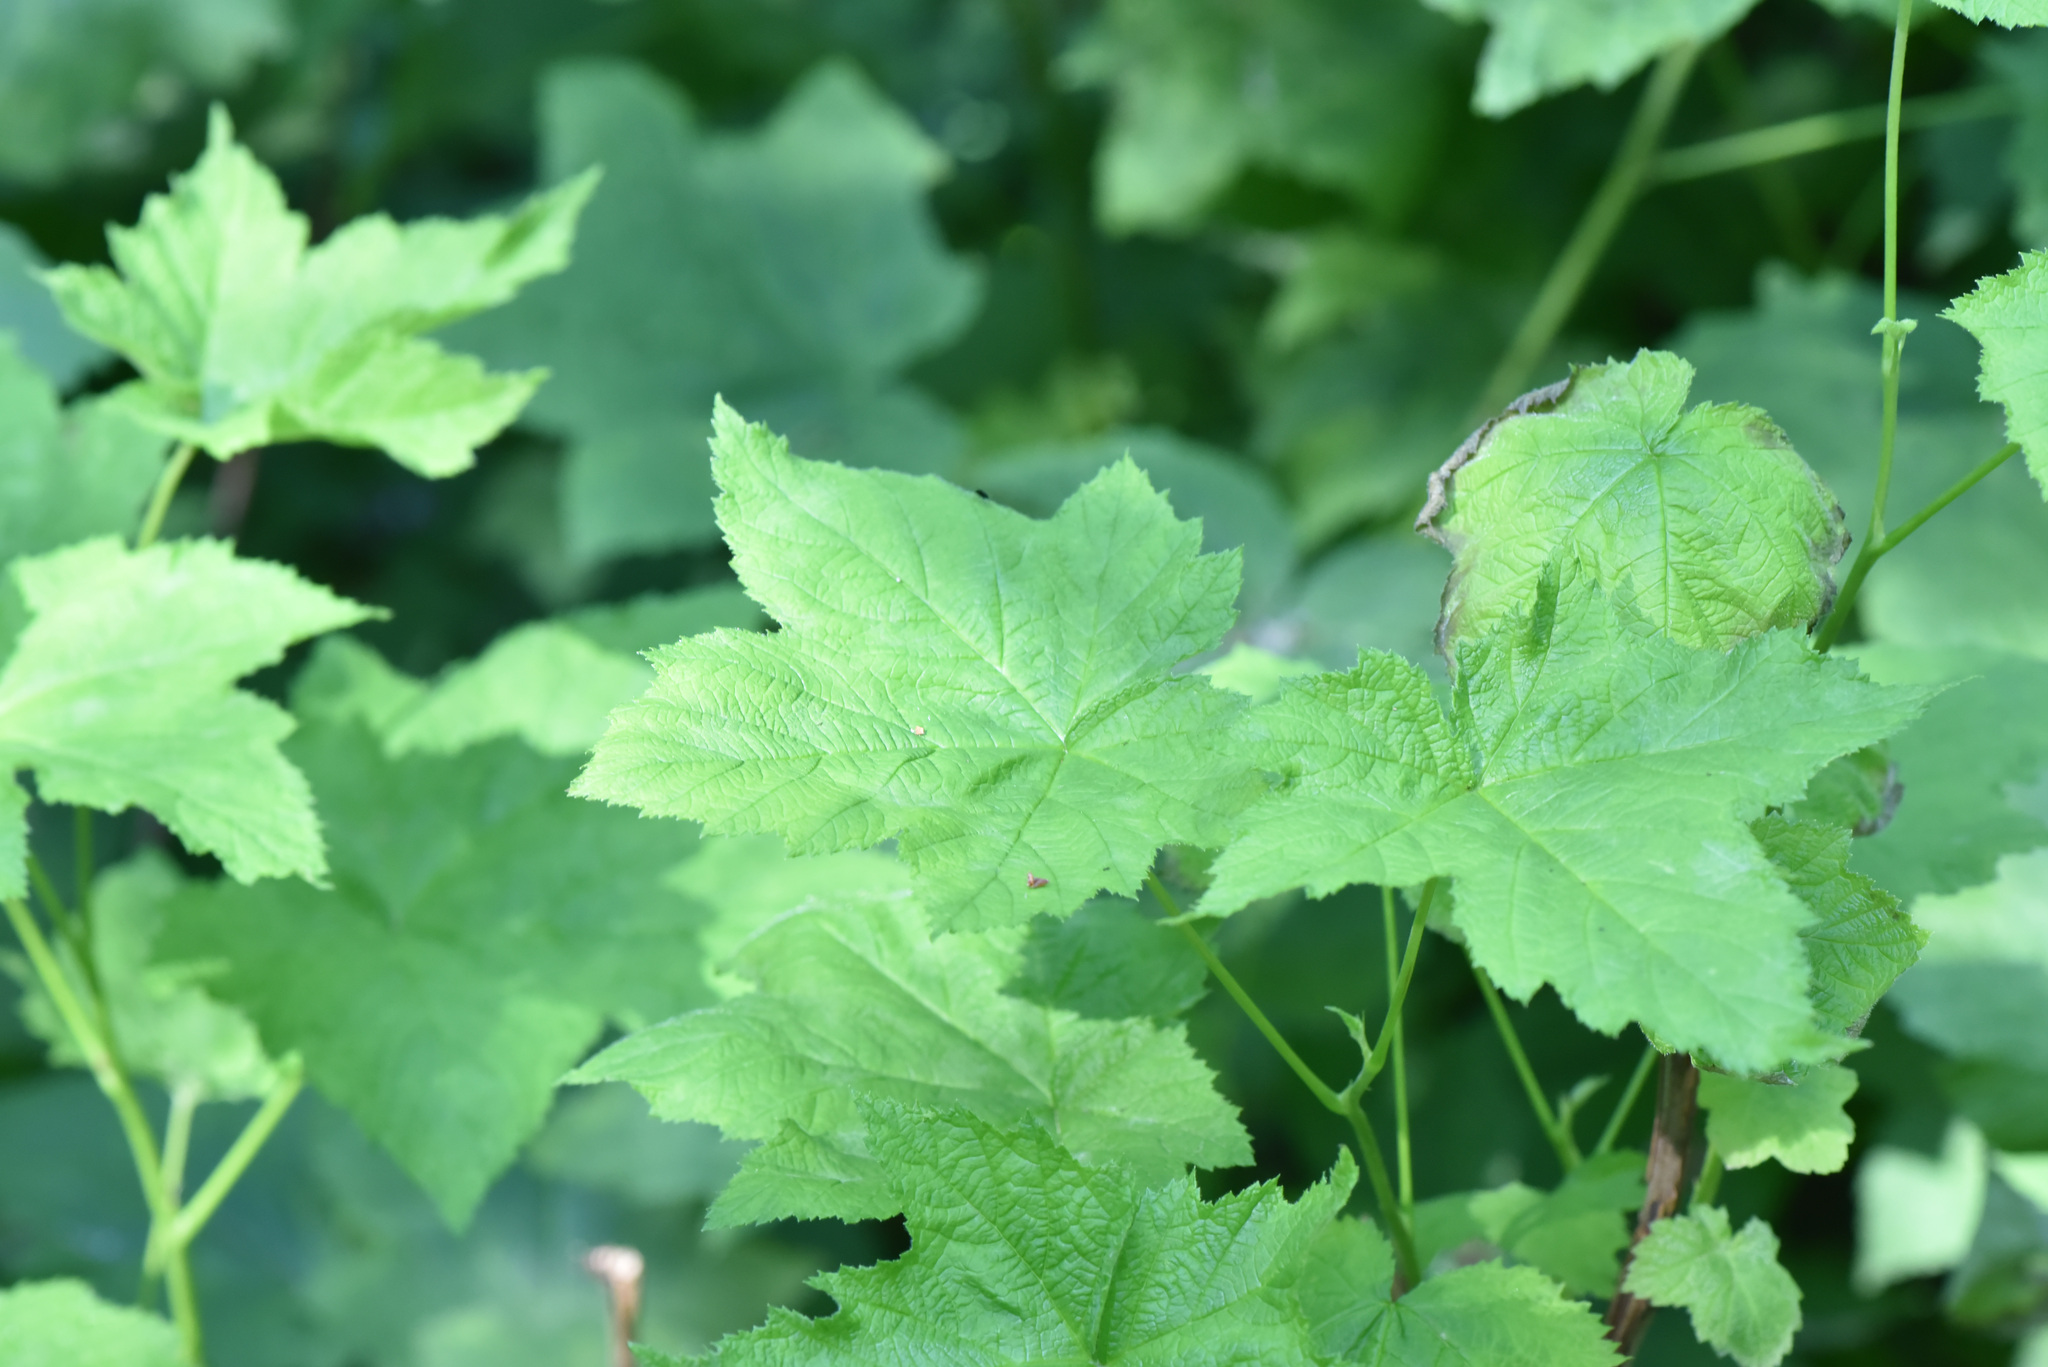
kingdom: Plantae
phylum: Tracheophyta
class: Magnoliopsida
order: Rosales
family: Rosaceae
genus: Rubus
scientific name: Rubus parviflorus
